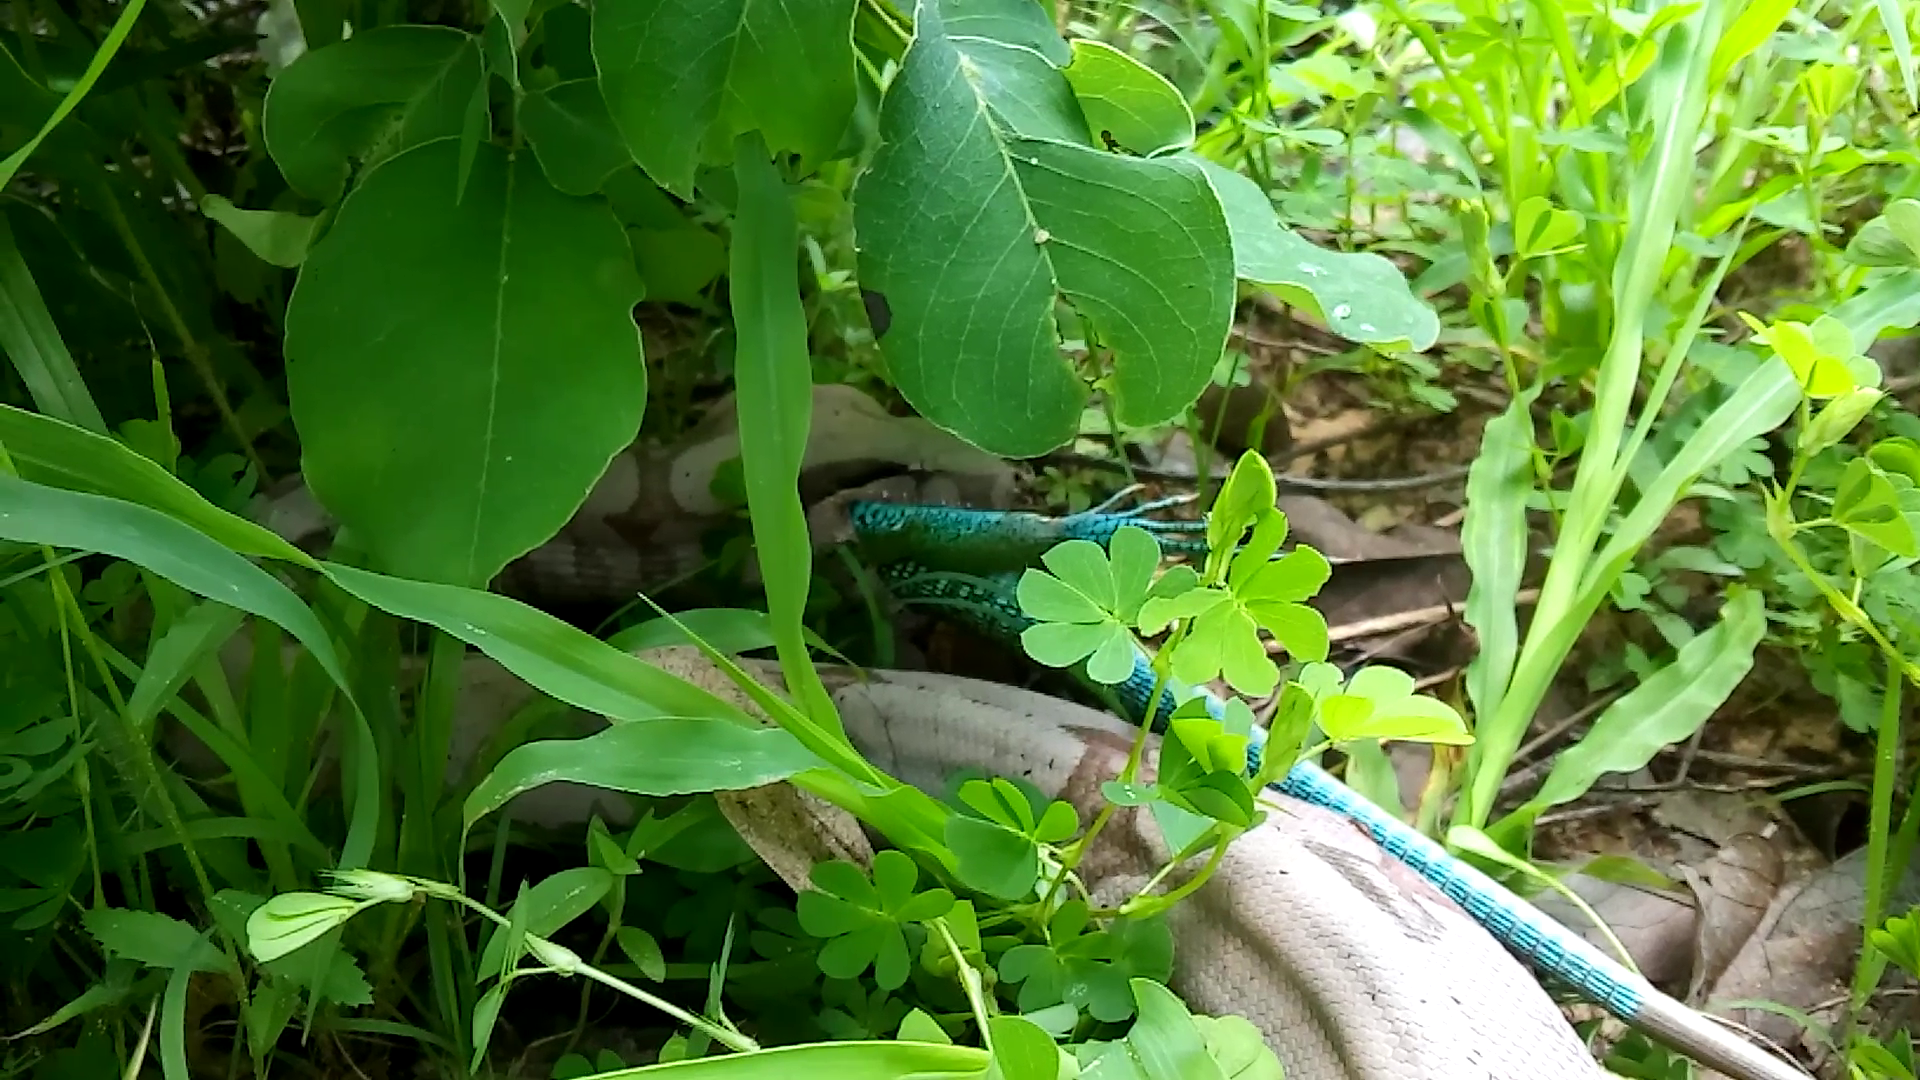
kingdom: Animalia
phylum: Chordata
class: Squamata
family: Boidae
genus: Boa
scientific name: Boa constrictor
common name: Boa constrictor
